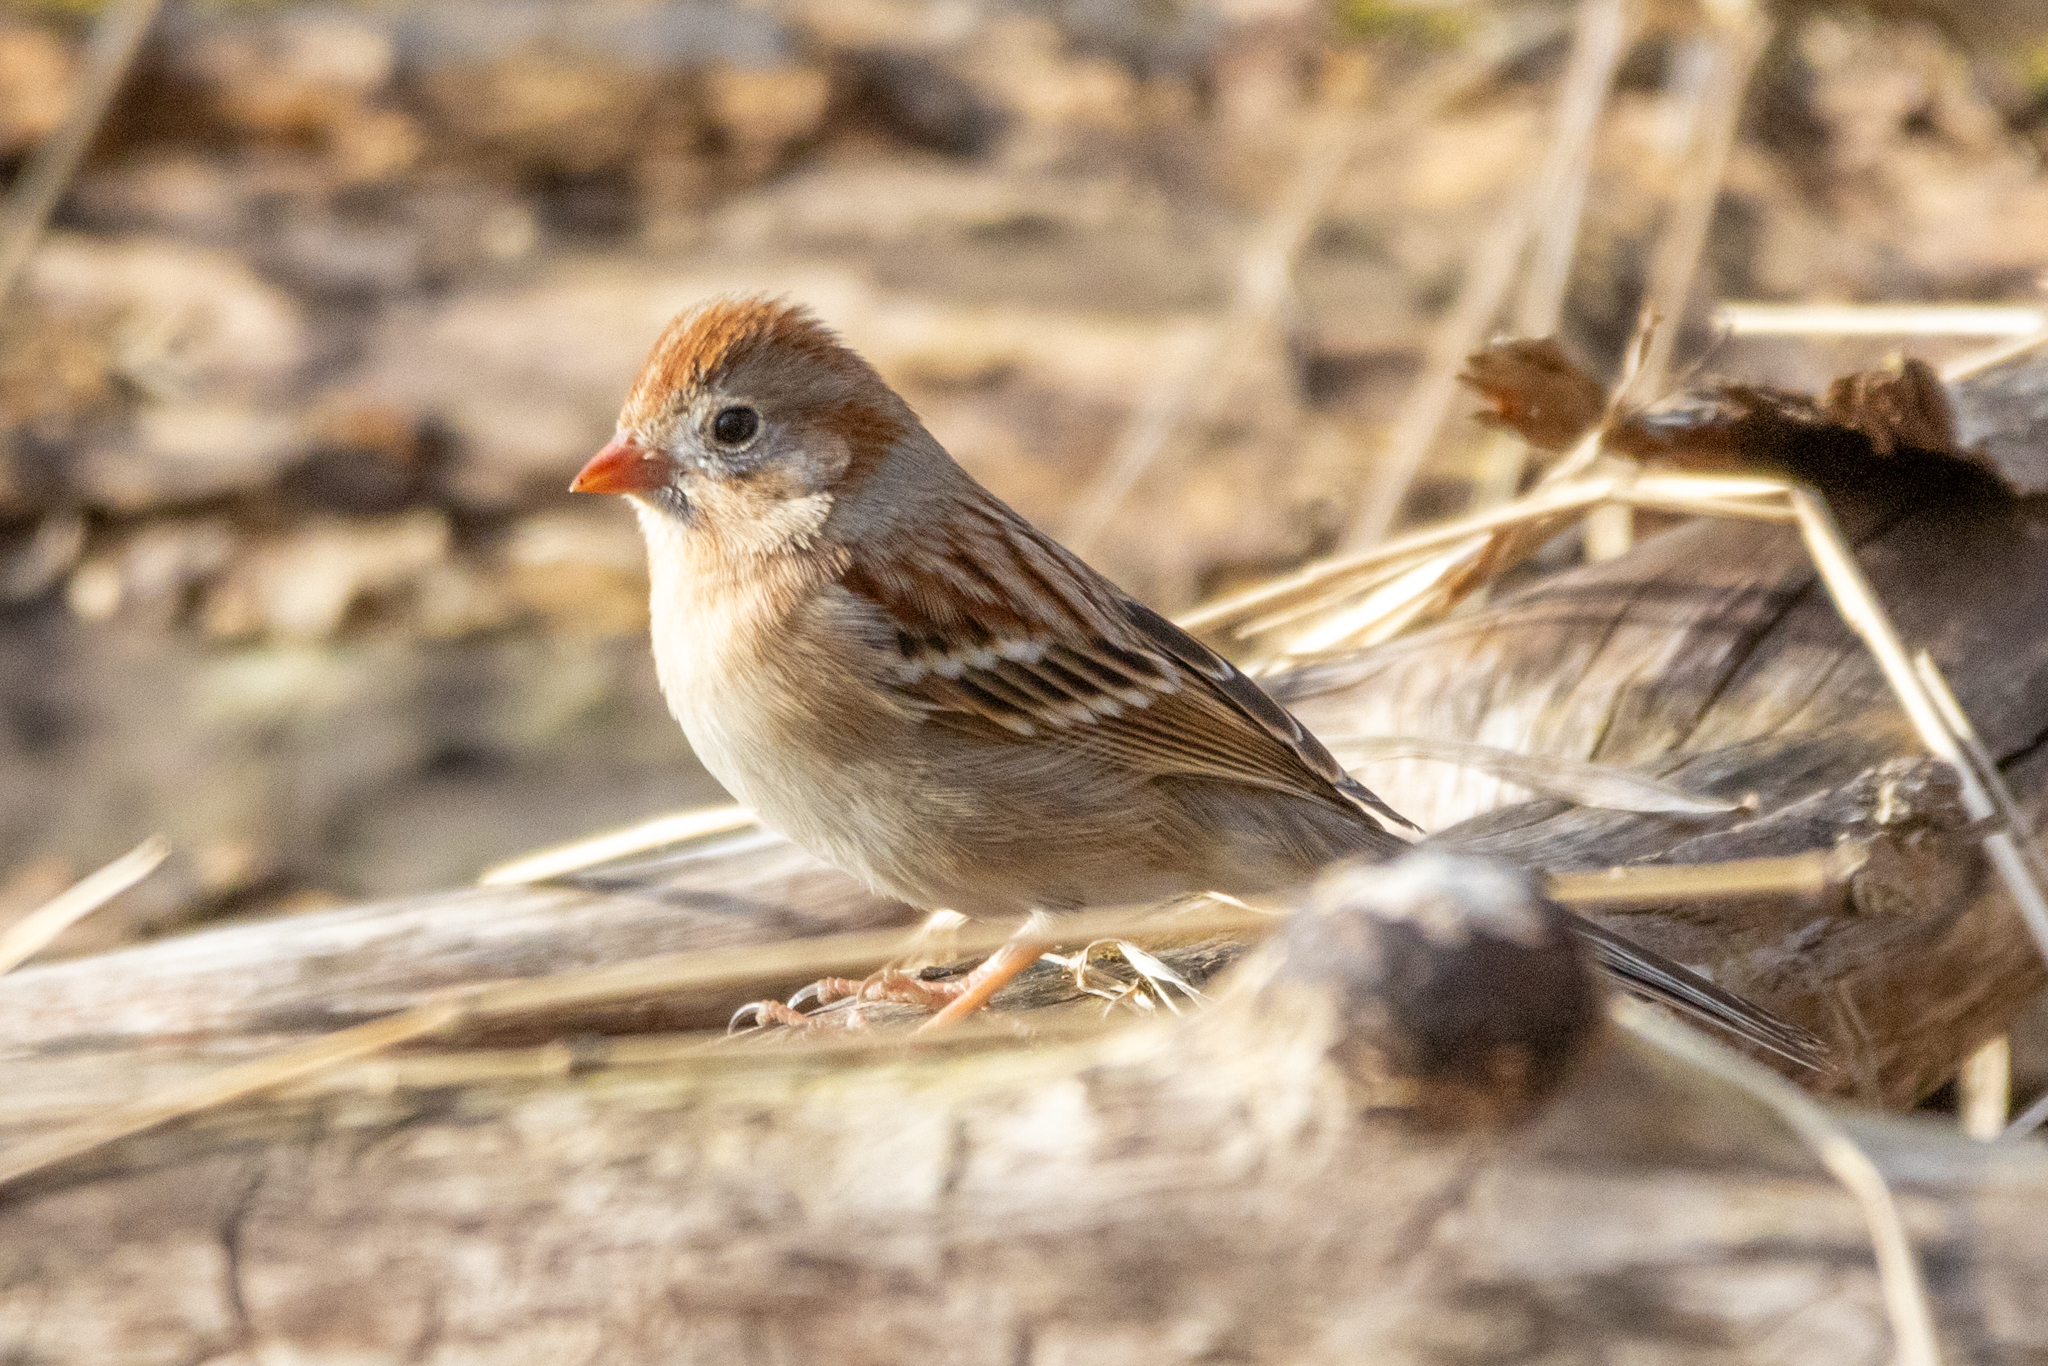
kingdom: Animalia
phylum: Chordata
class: Aves
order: Passeriformes
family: Passerellidae
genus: Spizella
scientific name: Spizella pusilla
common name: Field sparrow
